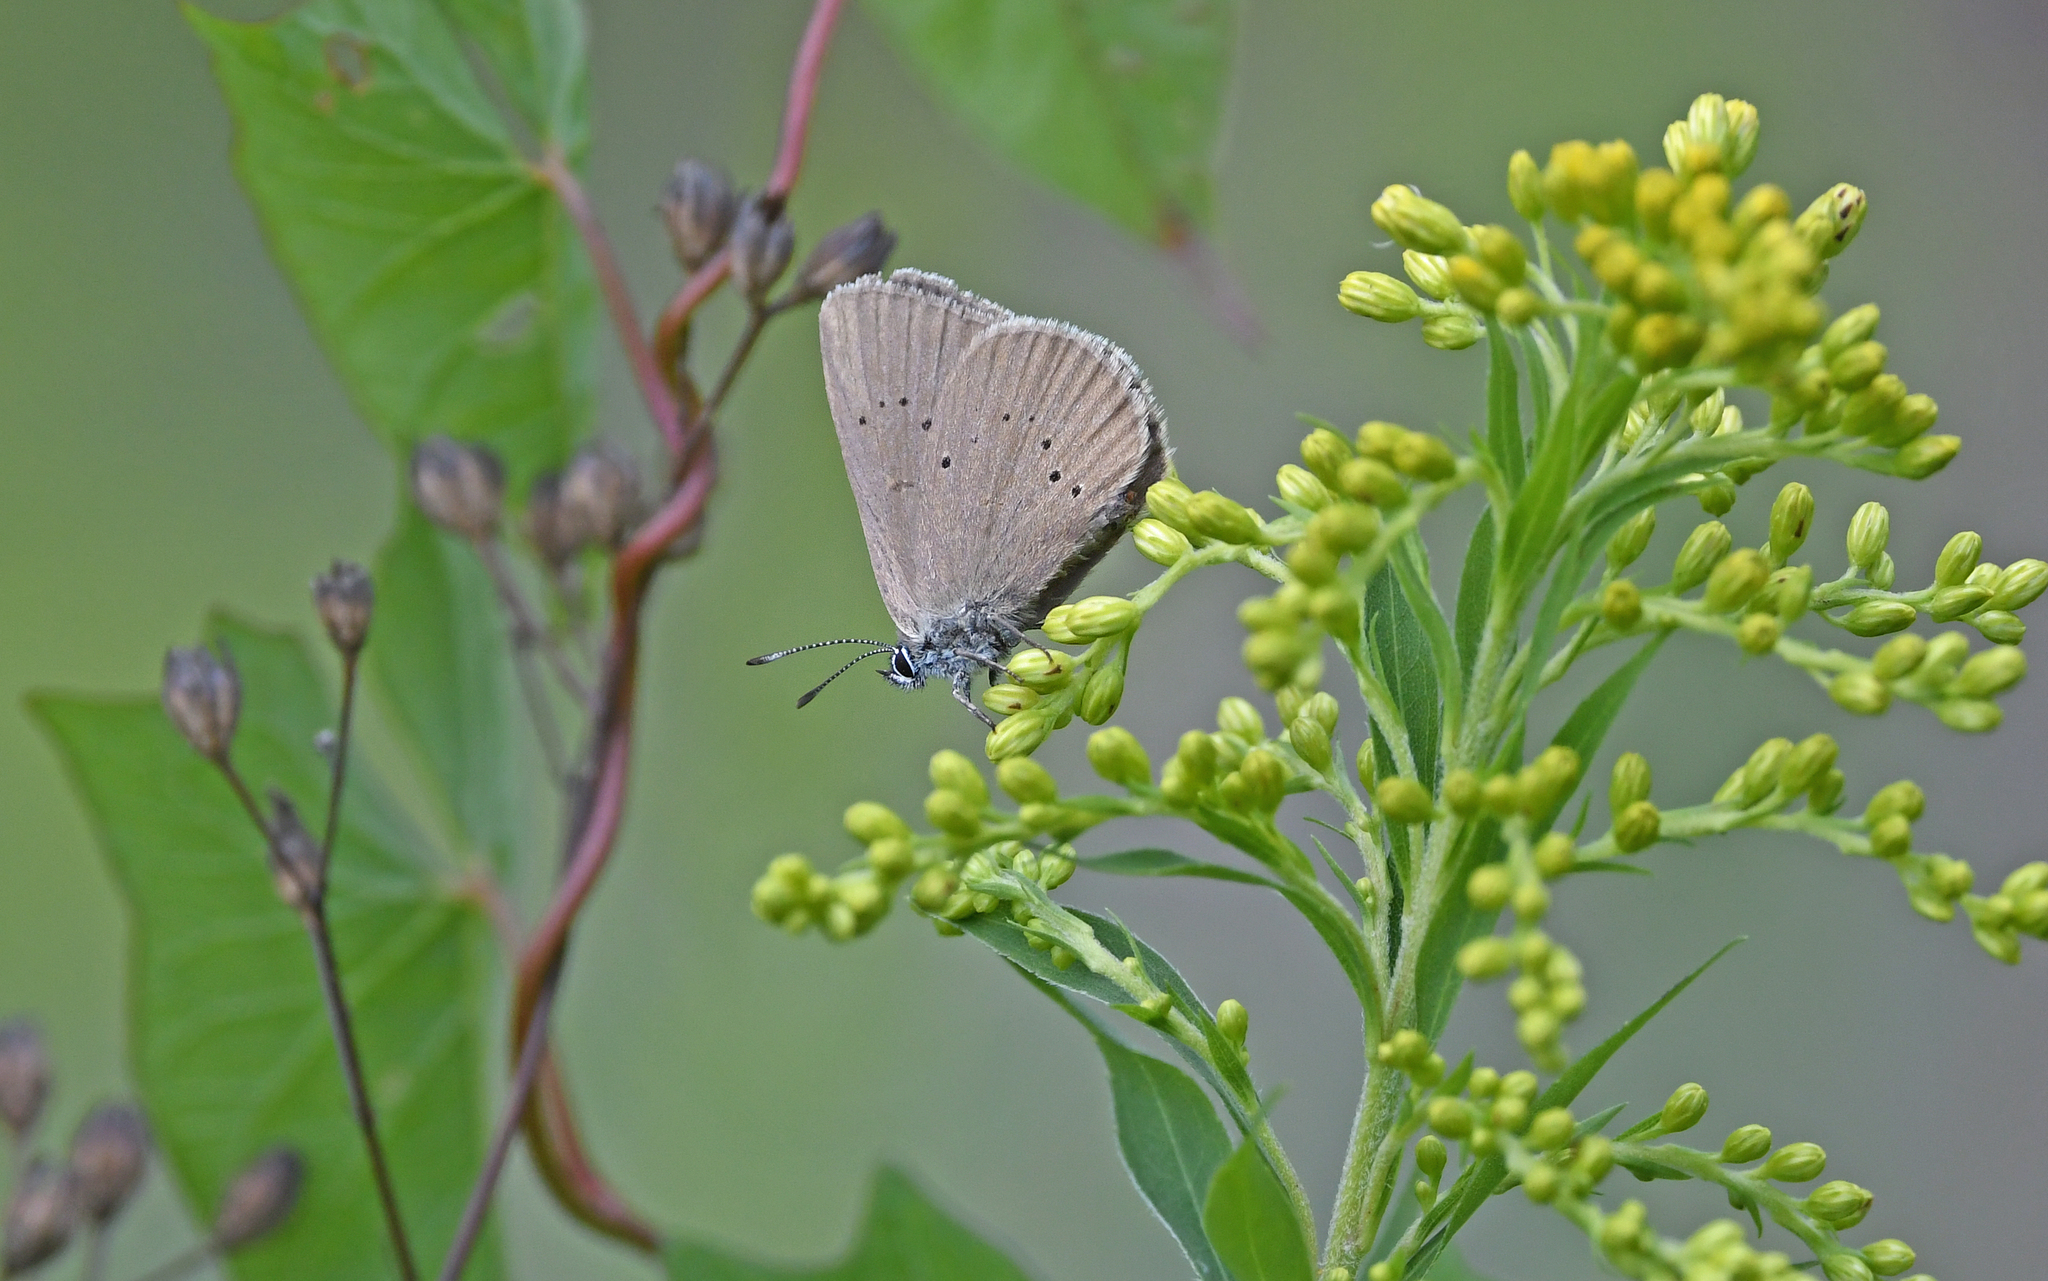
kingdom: Animalia
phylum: Arthropoda
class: Insecta
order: Lepidoptera
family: Lycaenidae
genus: Maculinea
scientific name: Maculinea nausithous
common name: Dusky large blue
